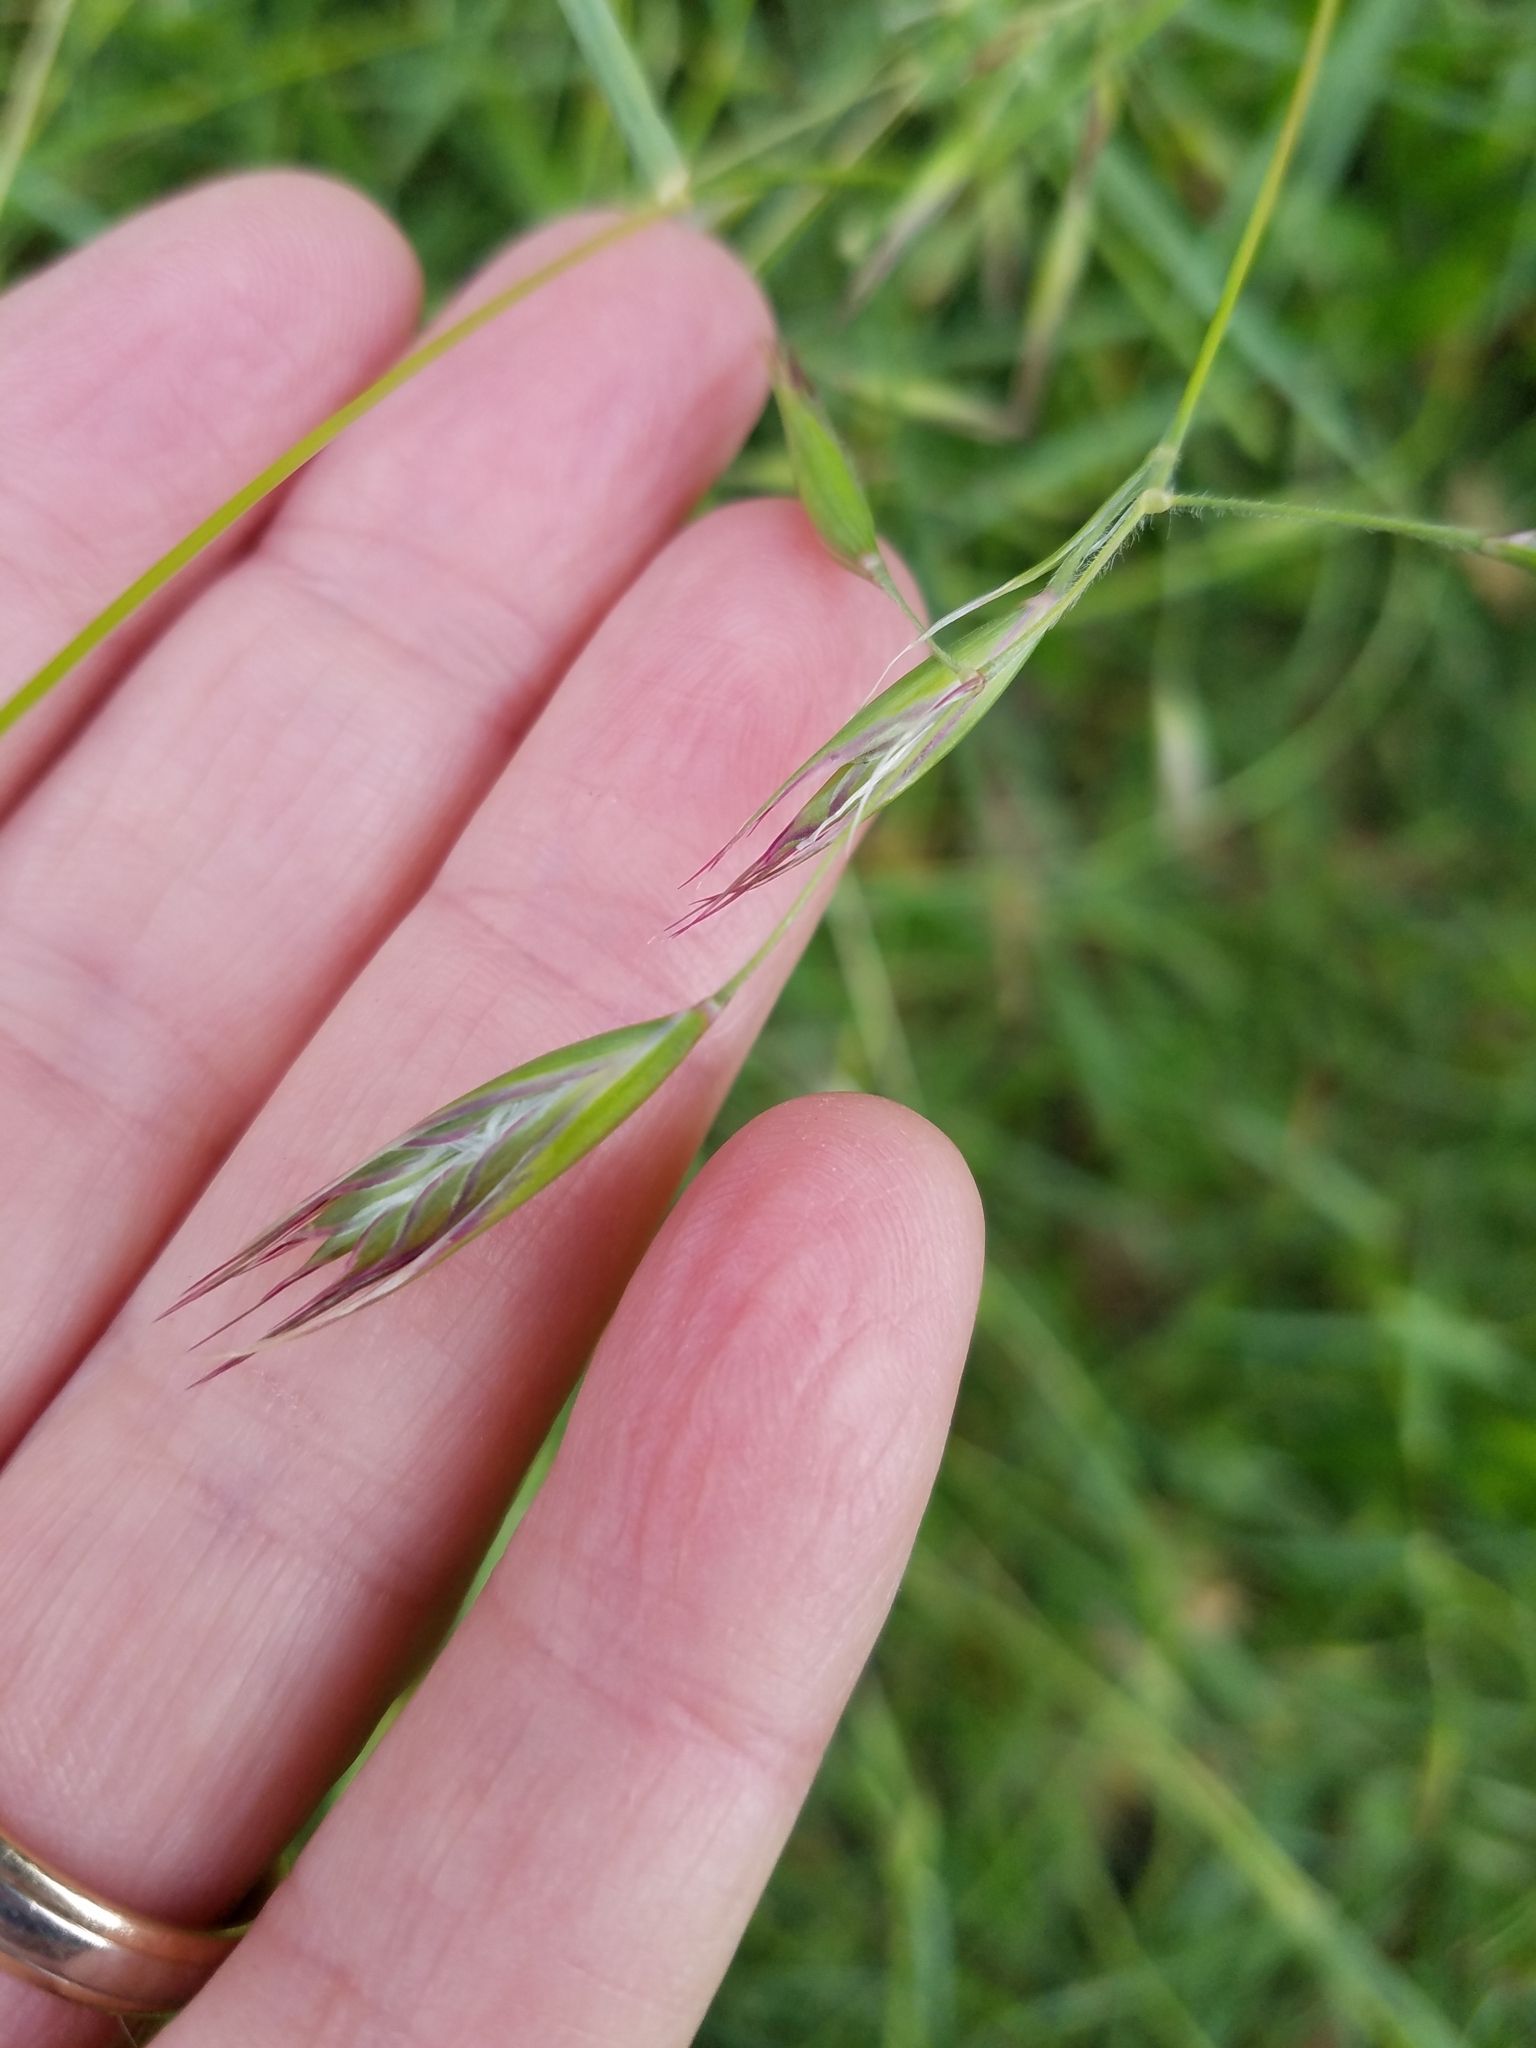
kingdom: Plantae
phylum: Tracheophyta
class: Liliopsida
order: Poales
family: Poaceae
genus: Danthonia
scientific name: Danthonia californica
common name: California oat grass
